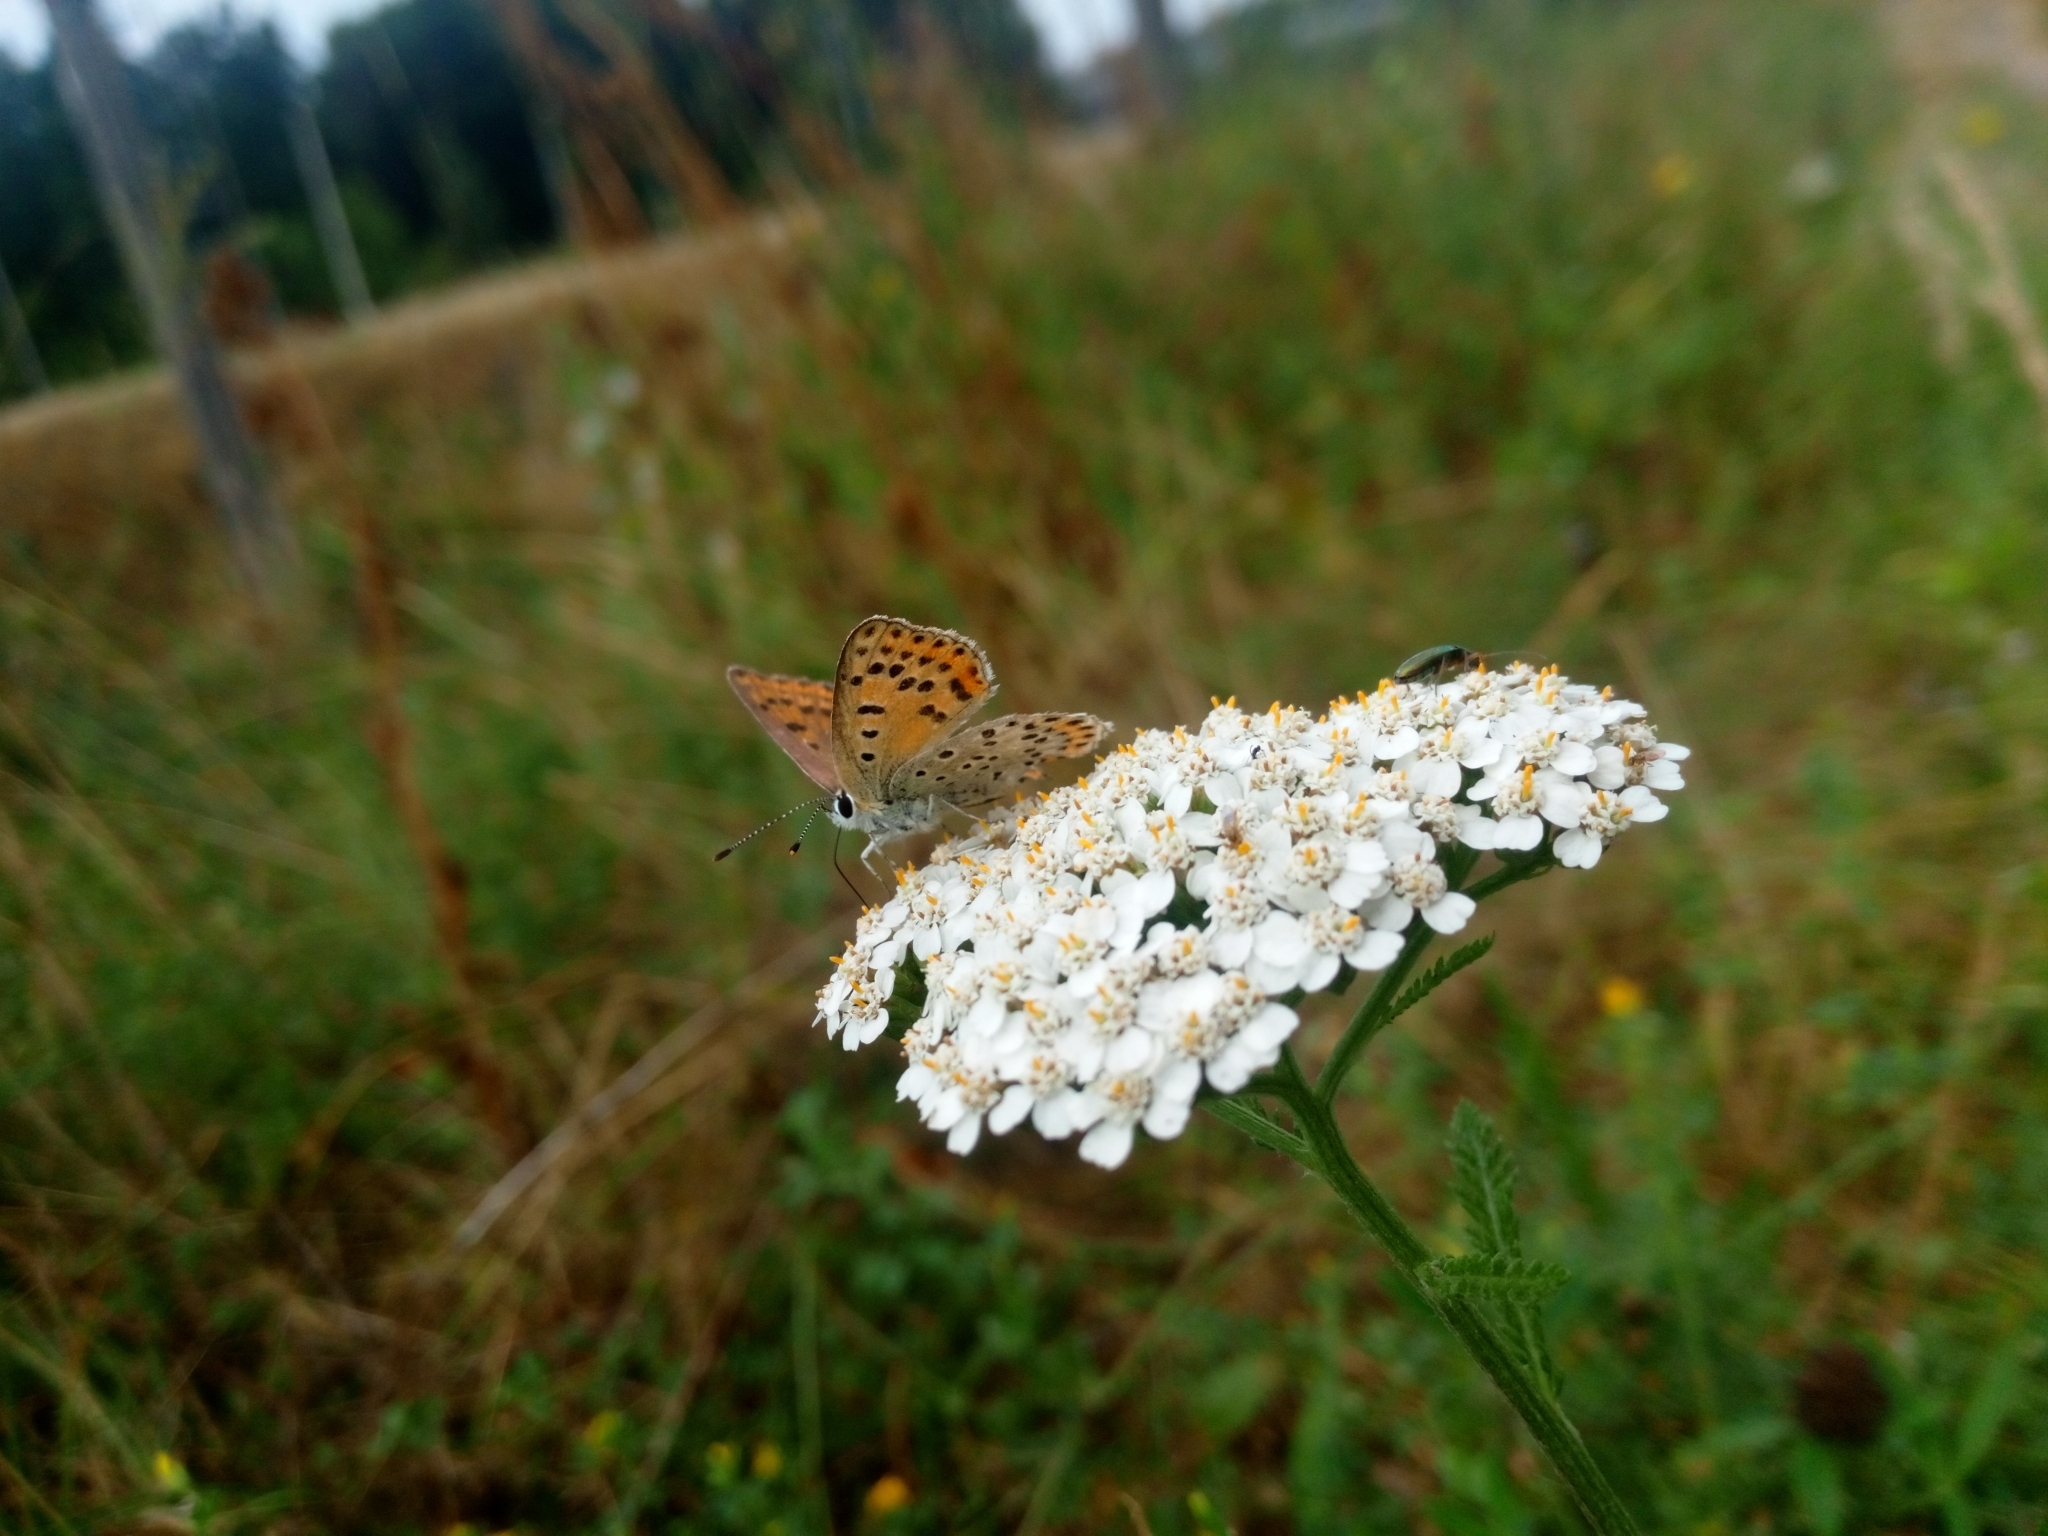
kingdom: Plantae
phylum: Tracheophyta
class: Magnoliopsida
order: Asterales
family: Asteraceae
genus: Achillea
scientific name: Achillea millefolium
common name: Yarrow
